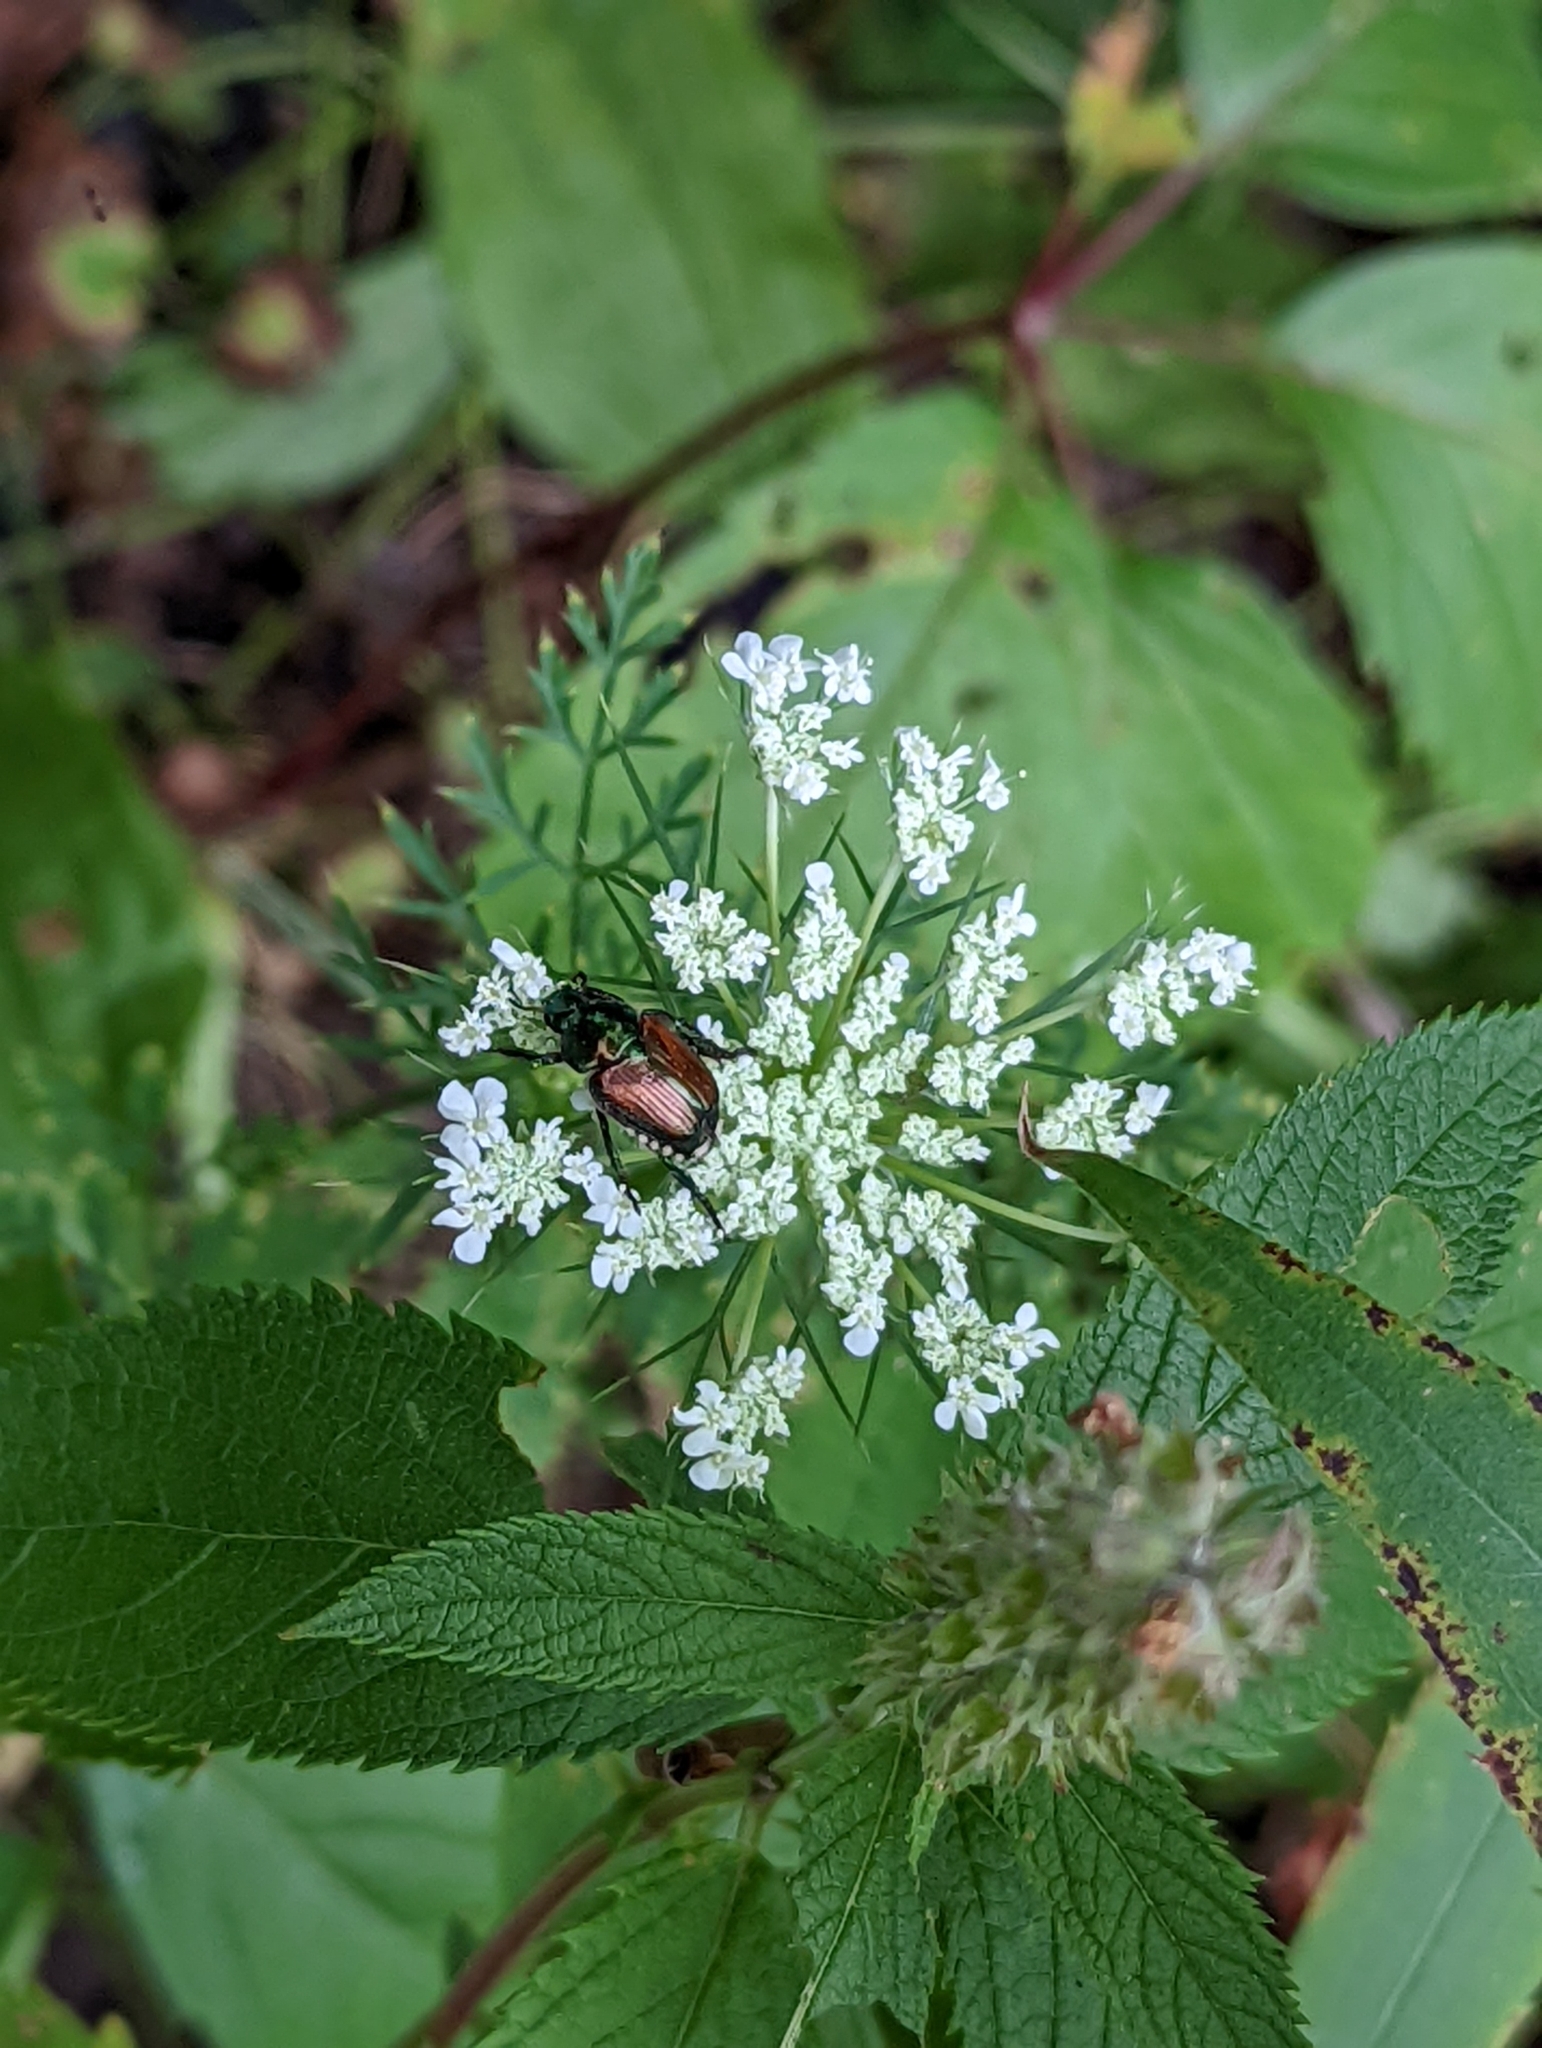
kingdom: Animalia
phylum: Arthropoda
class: Insecta
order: Coleoptera
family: Scarabaeidae
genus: Popillia
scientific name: Popillia japonica
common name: Japanese beetle
